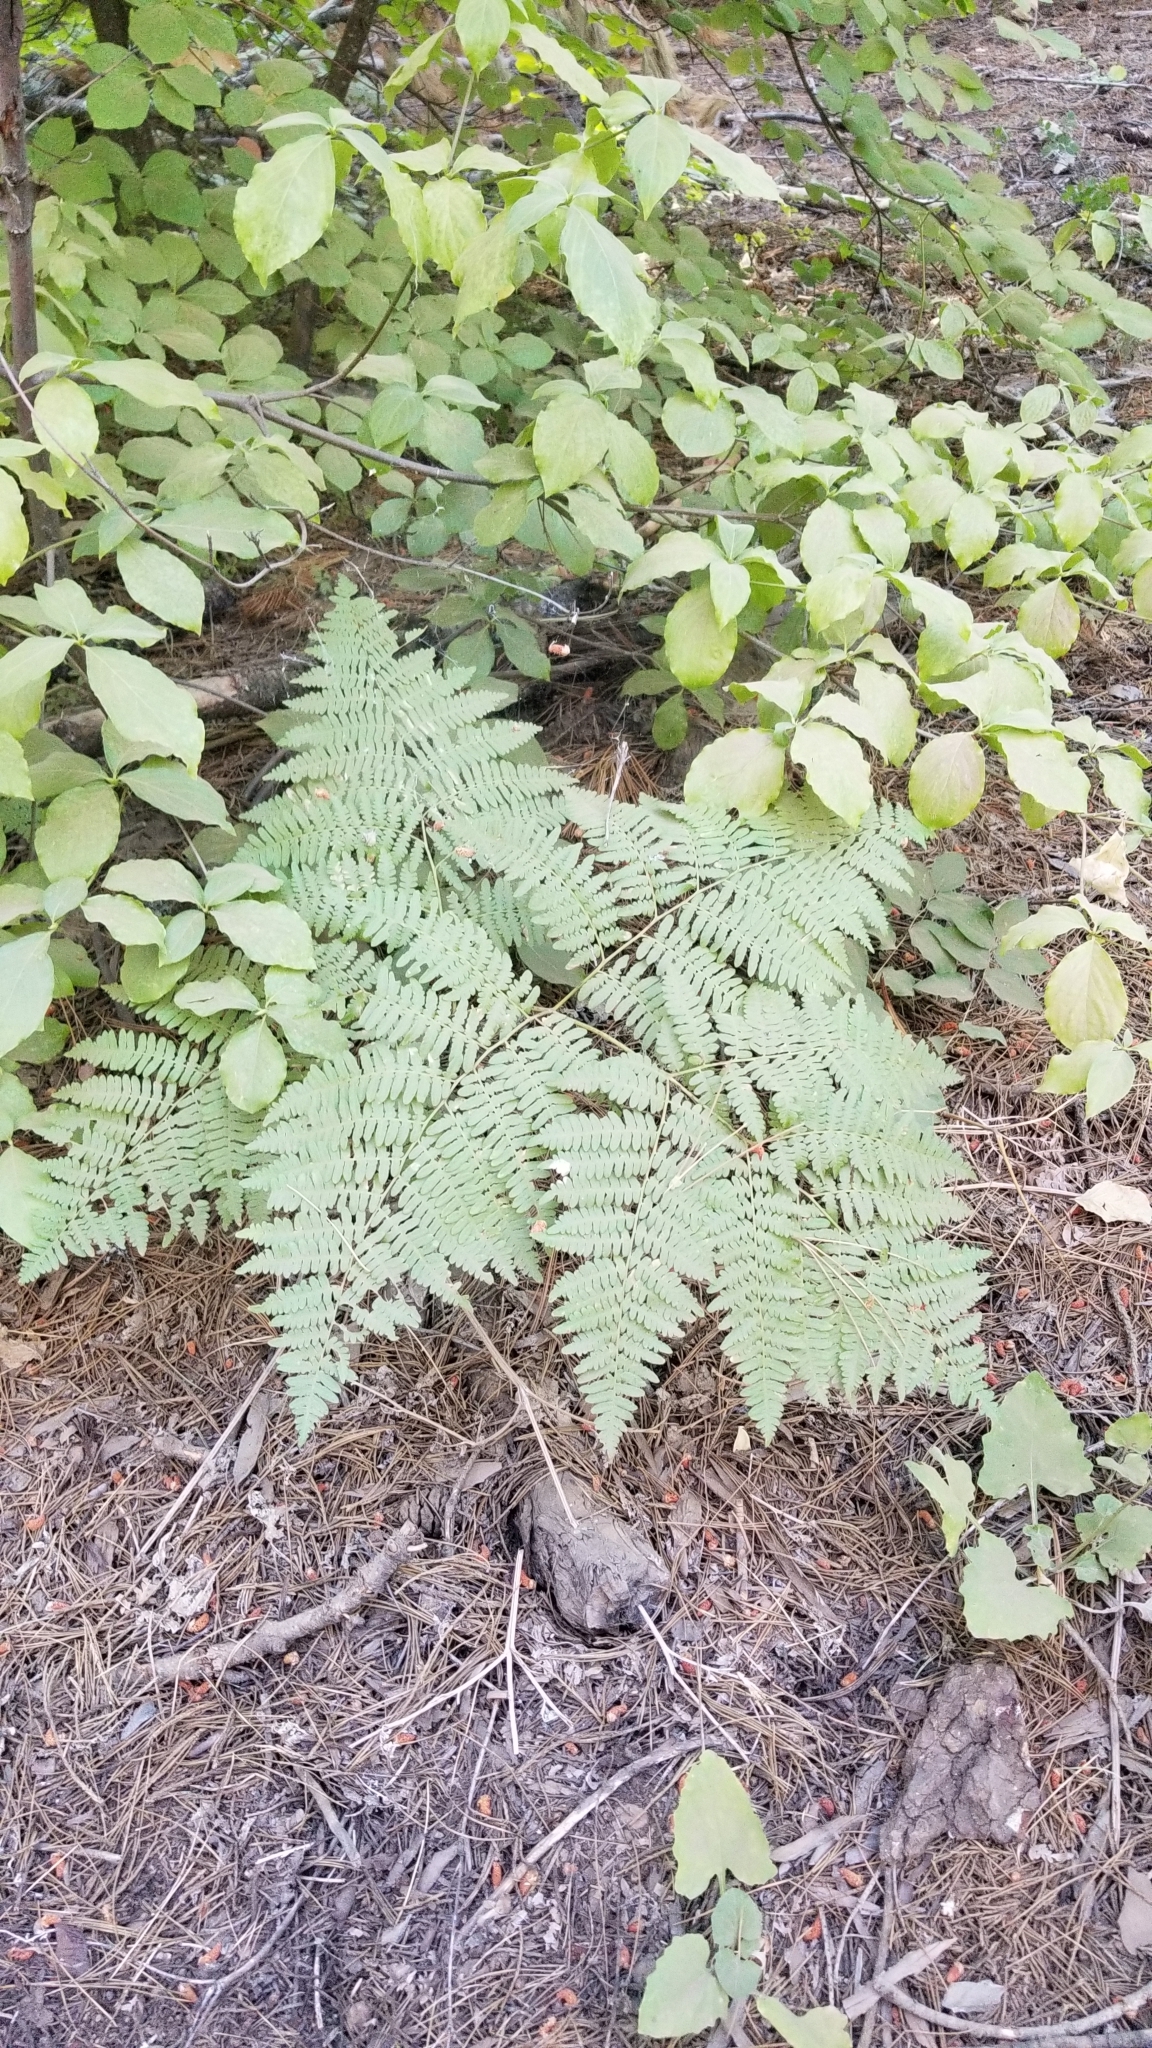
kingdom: Plantae
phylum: Tracheophyta
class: Polypodiopsida
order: Polypodiales
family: Dennstaedtiaceae
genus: Pteridium
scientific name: Pteridium aquilinum
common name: Bracken
